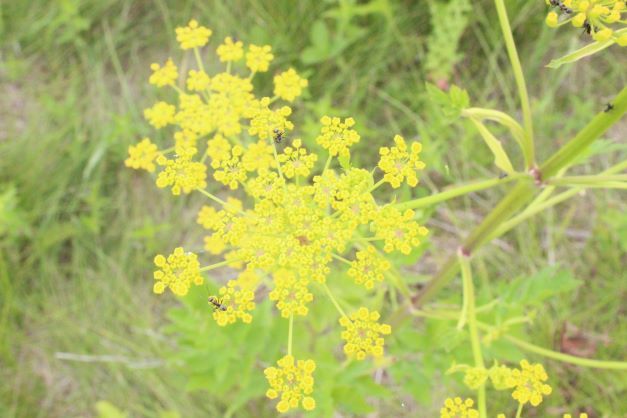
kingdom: Plantae
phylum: Tracheophyta
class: Magnoliopsida
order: Apiales
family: Apiaceae
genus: Pastinaca
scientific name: Pastinaca sativa
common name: Wild parsnip
